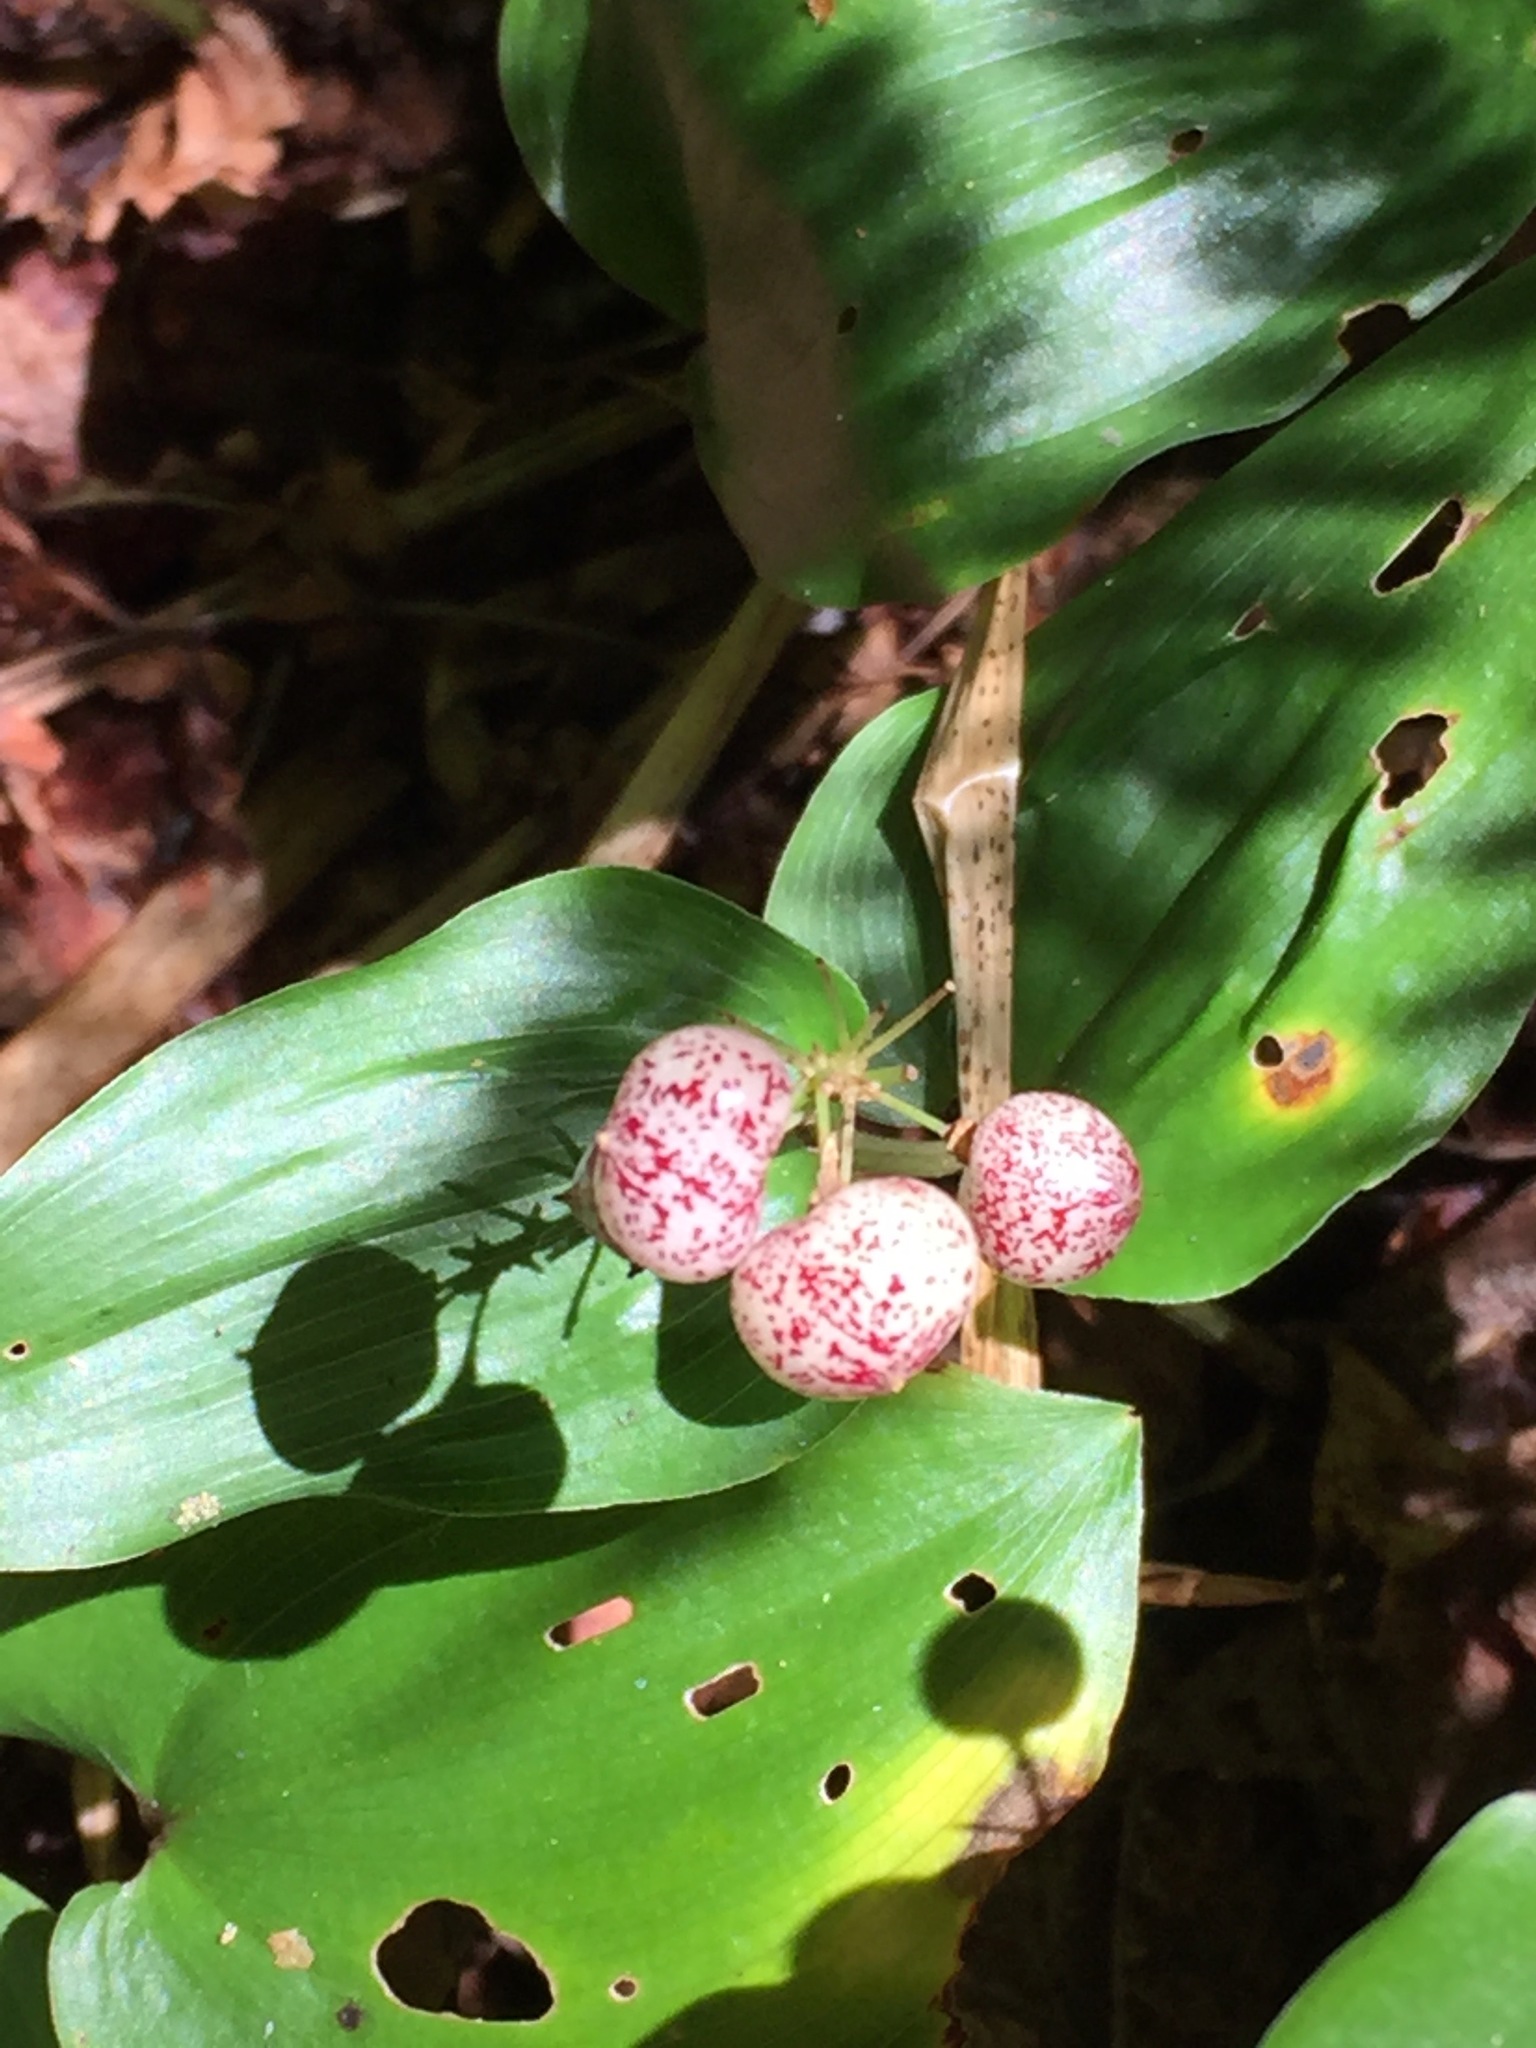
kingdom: Plantae
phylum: Tracheophyta
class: Liliopsida
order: Asparagales
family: Asparagaceae
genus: Maianthemum
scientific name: Maianthemum canadense
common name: False lily-of-the-valley
